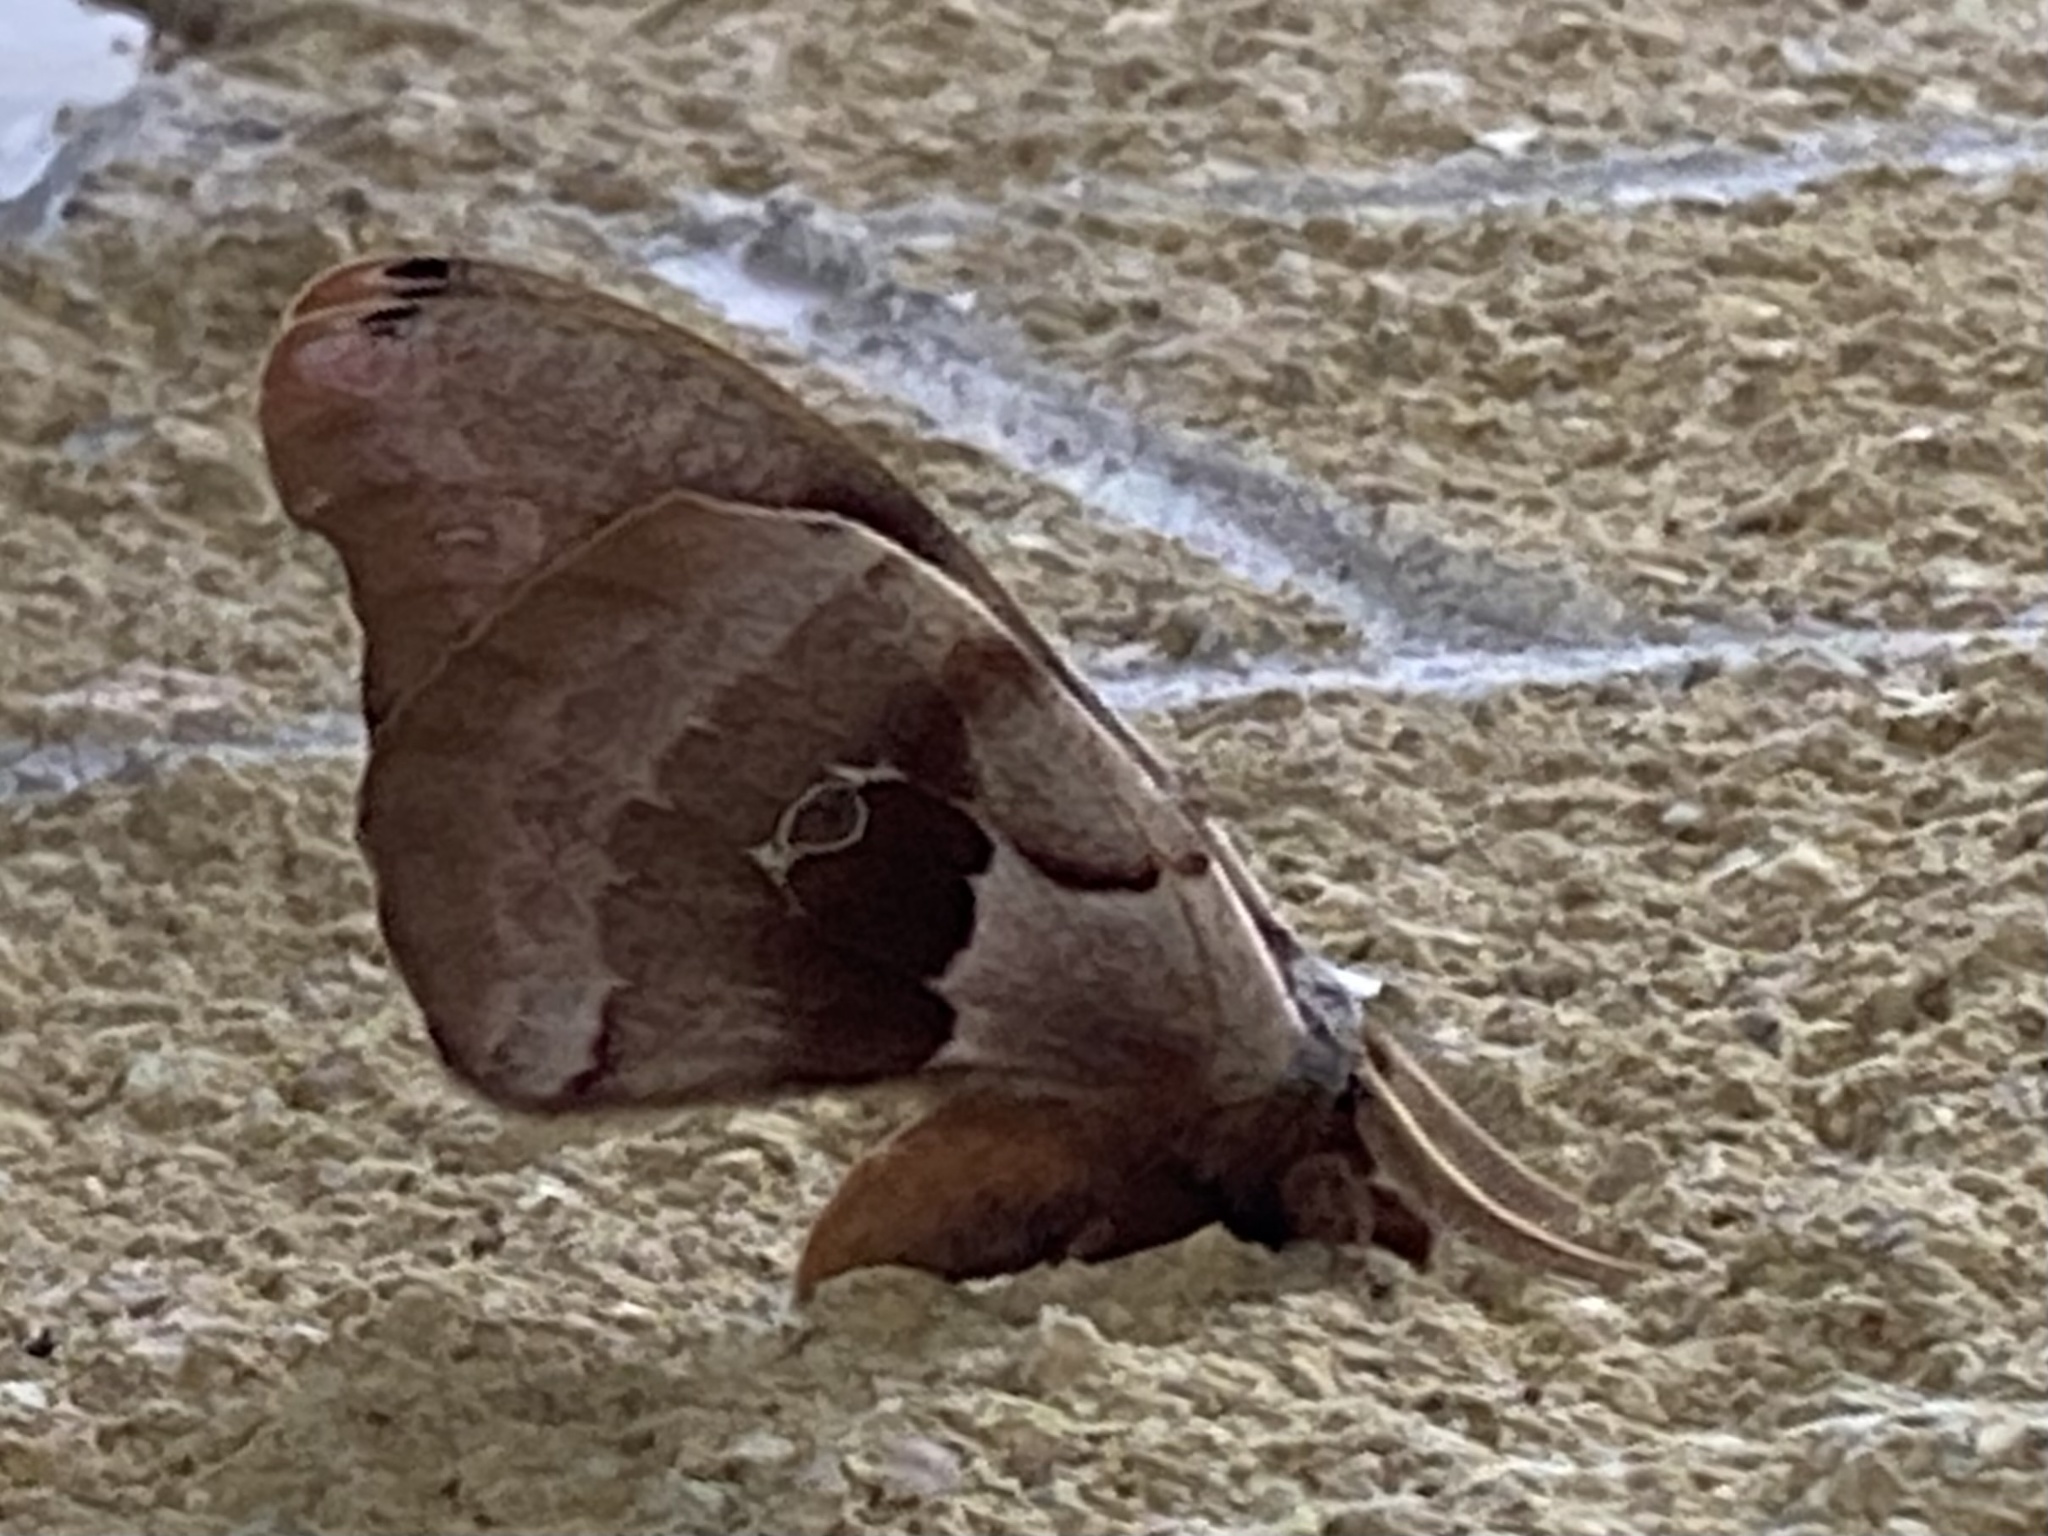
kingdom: Animalia
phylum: Arthropoda
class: Insecta
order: Lepidoptera
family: Saturniidae
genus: Antheraea
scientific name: Antheraea polyphemus
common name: Polyphemus moth
